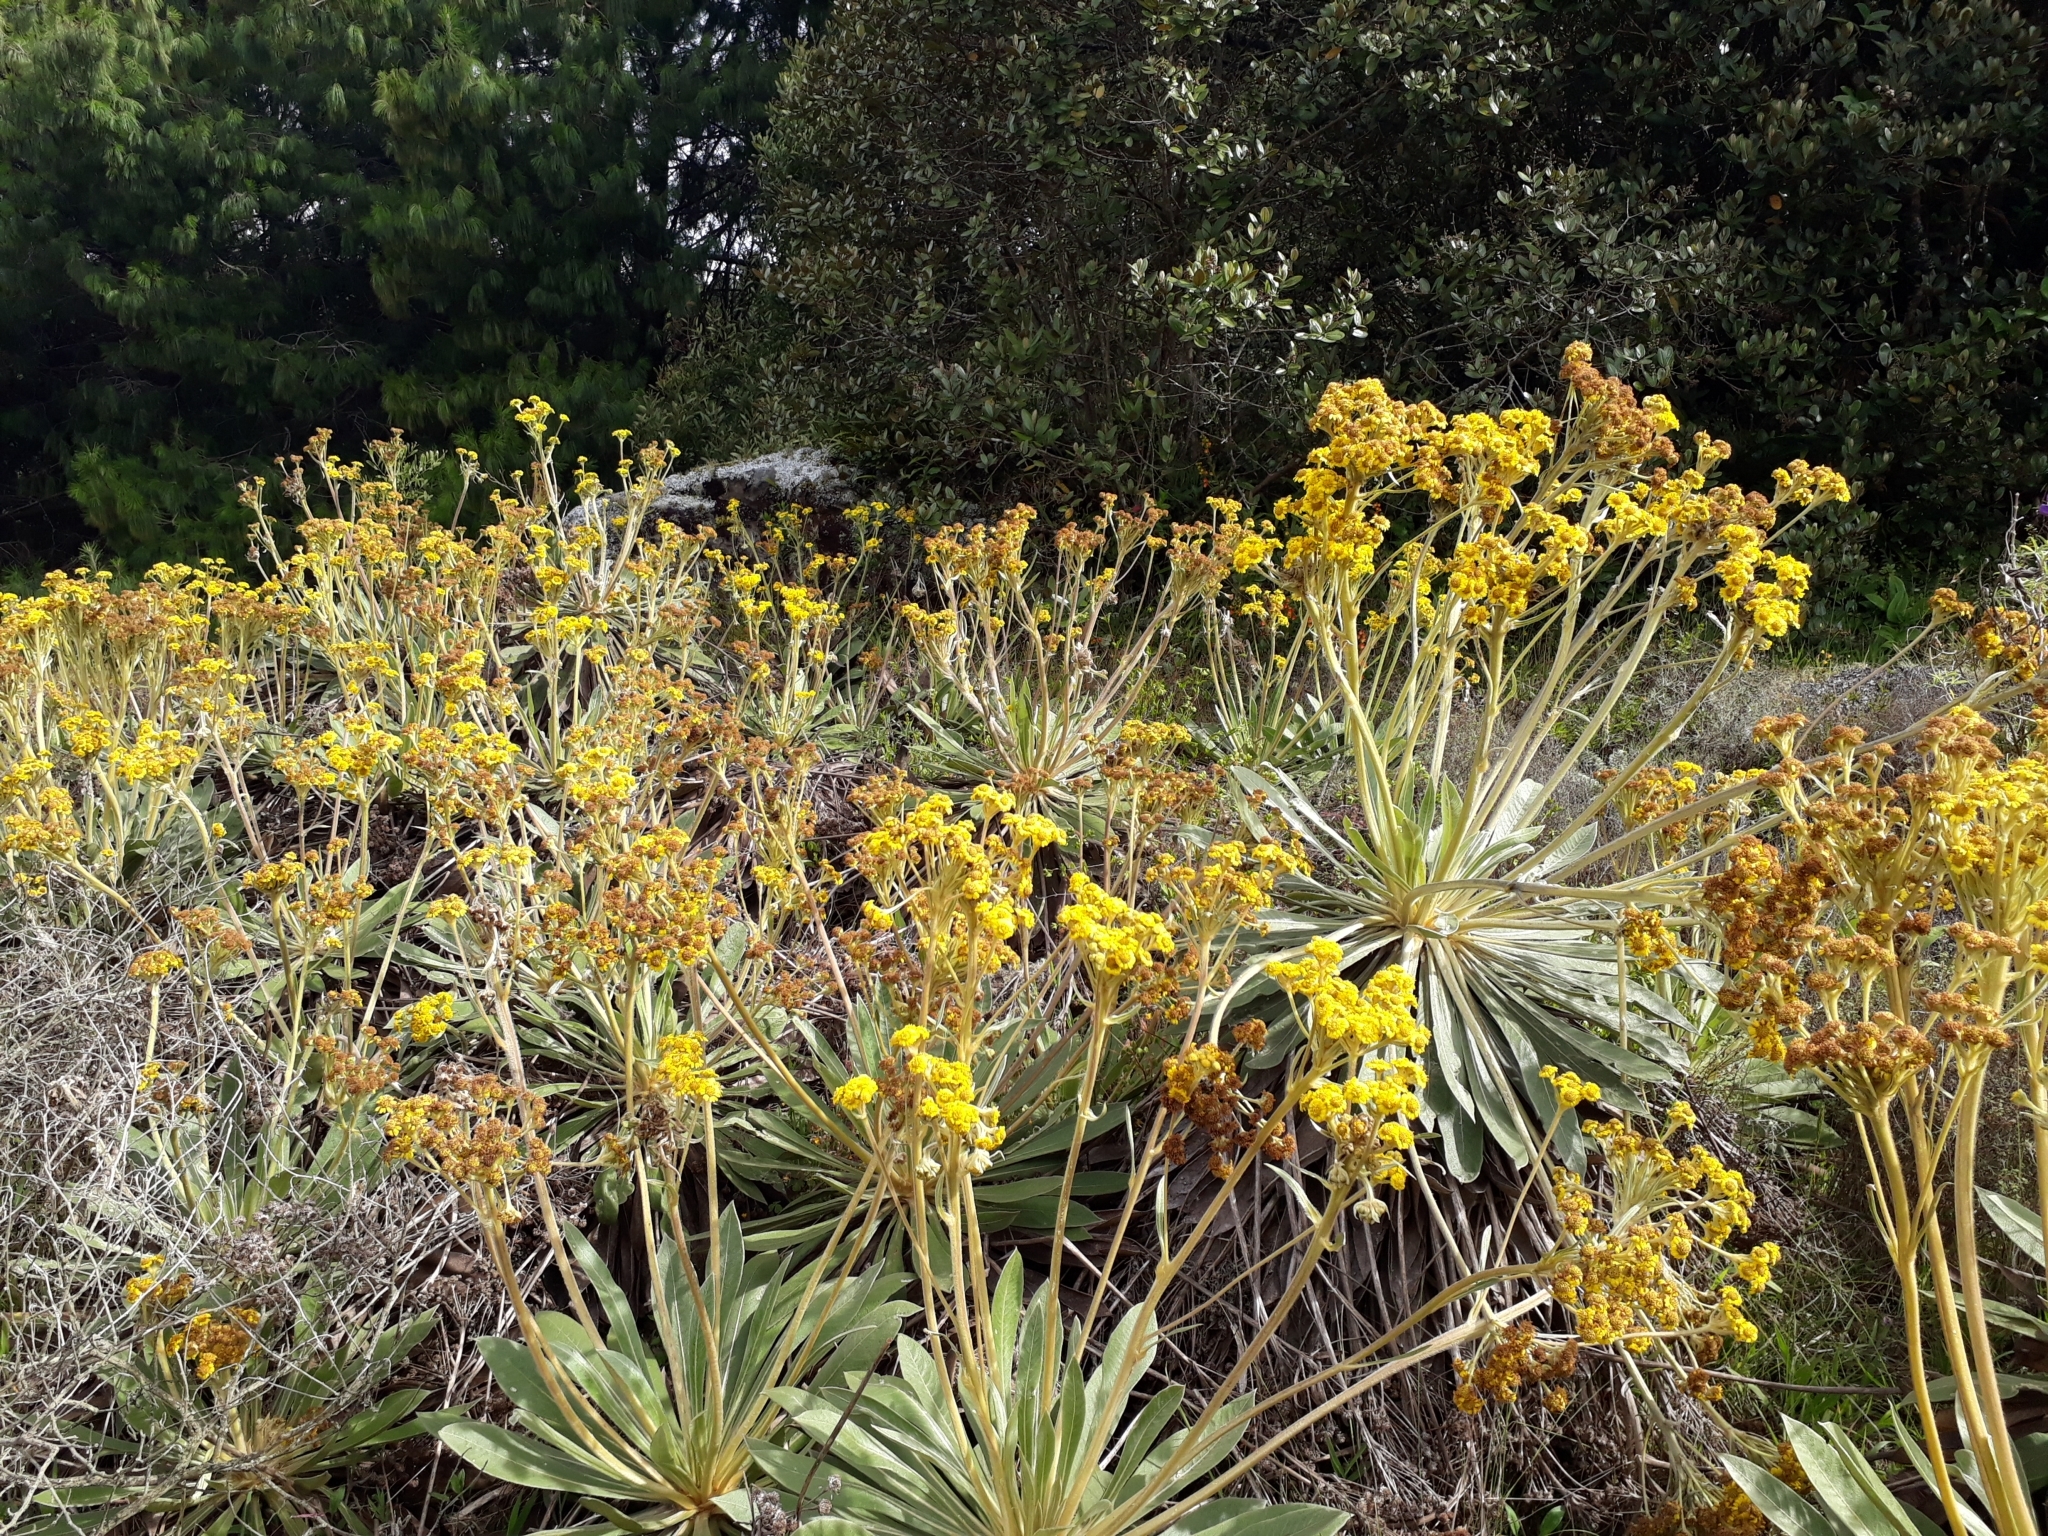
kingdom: Plantae
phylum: Tracheophyta
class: Magnoliopsida
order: Asterales
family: Asteraceae
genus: Espeletia
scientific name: Espeletia corymbosa
